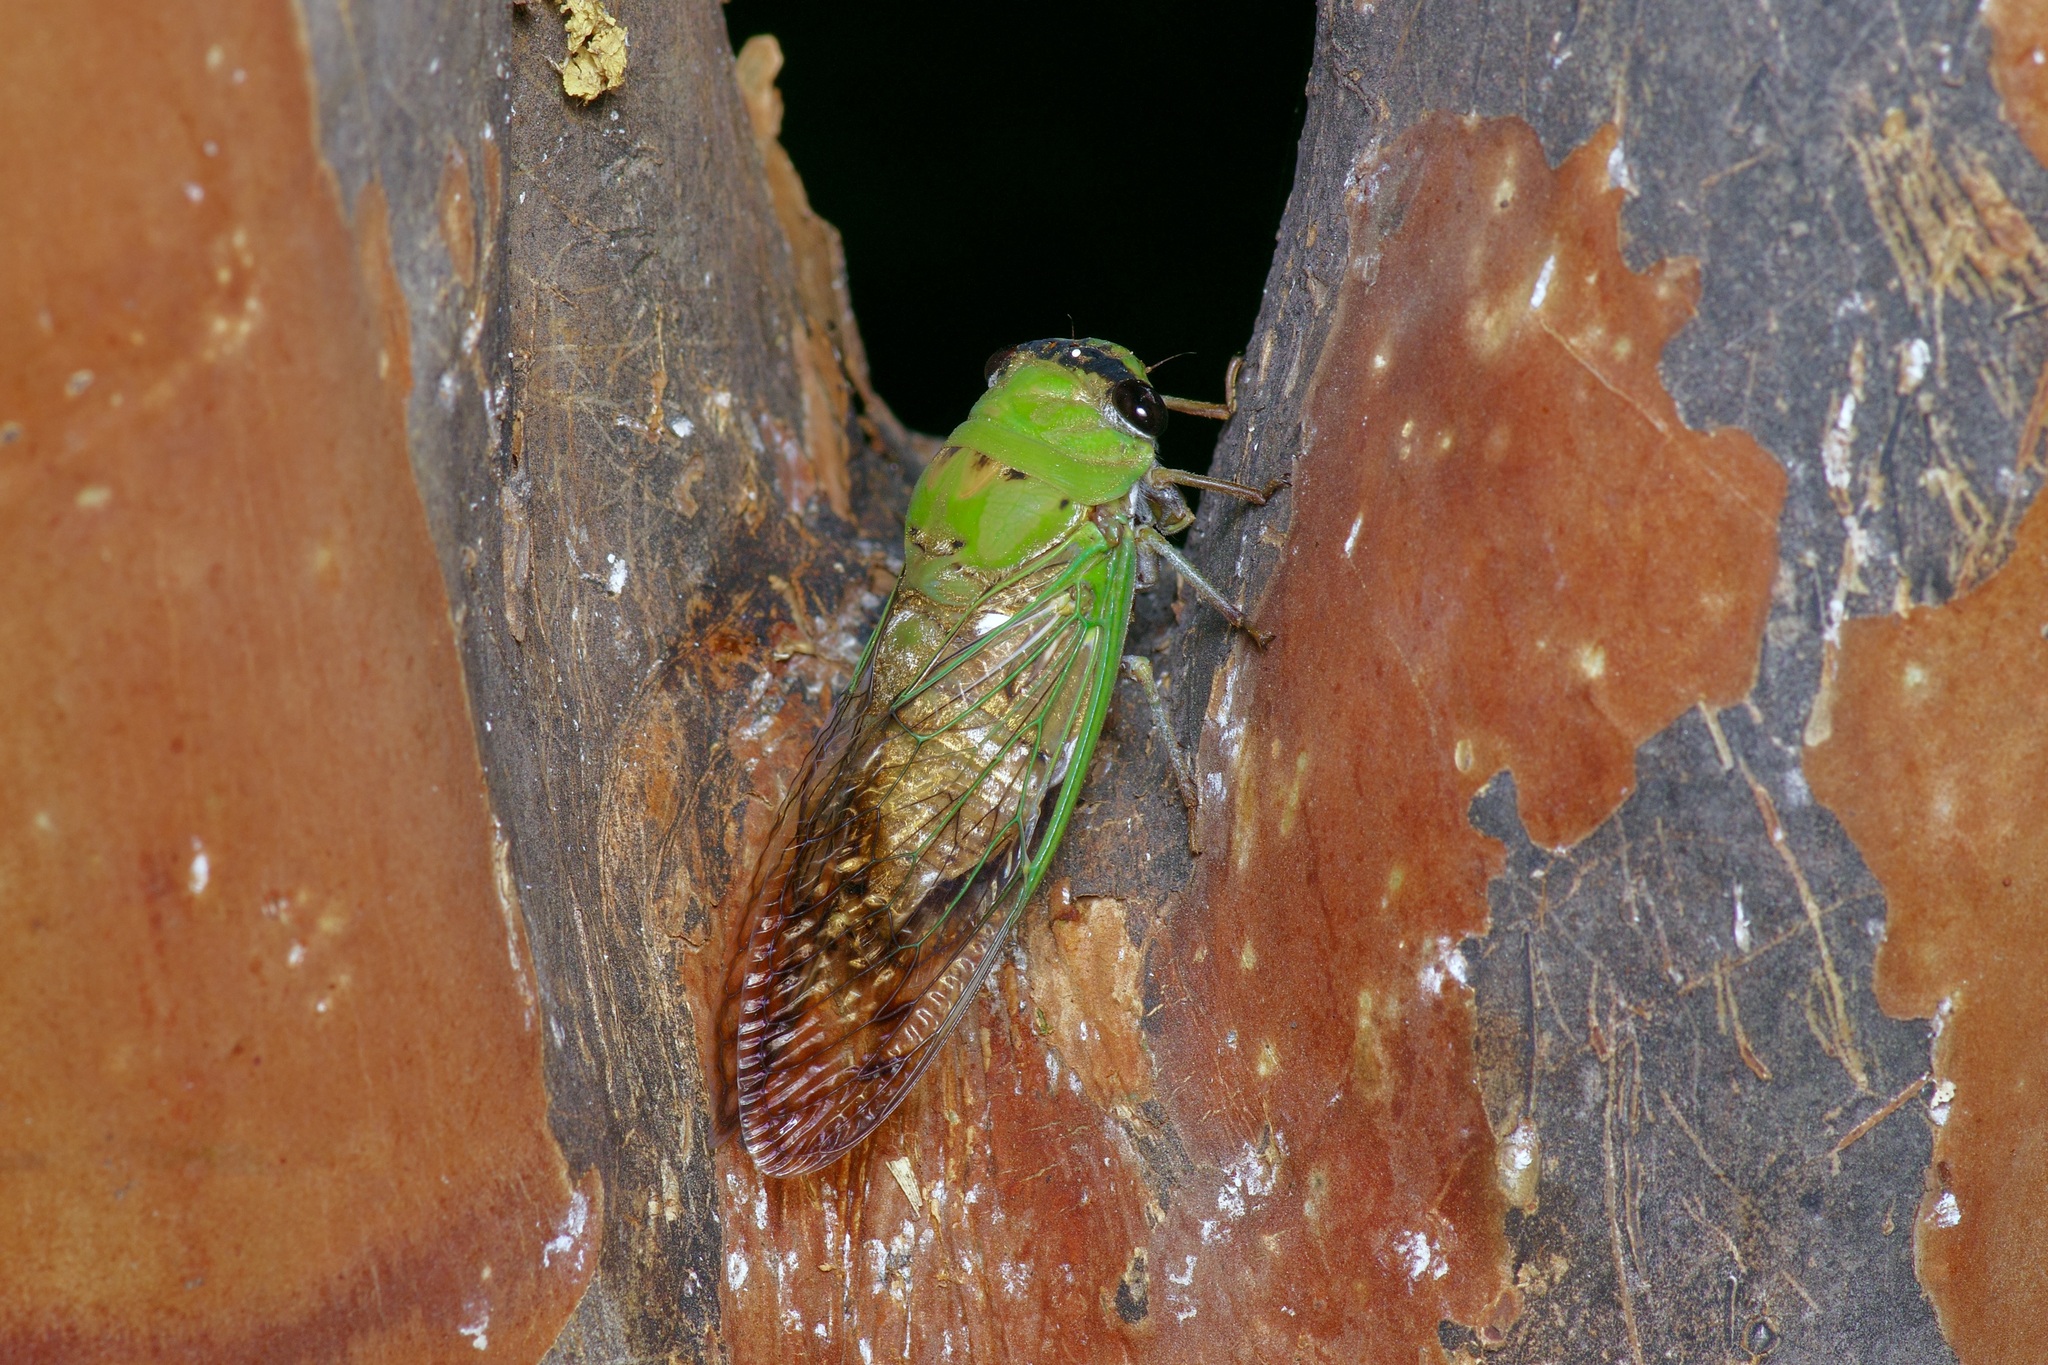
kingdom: Animalia
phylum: Arthropoda
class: Insecta
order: Hemiptera
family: Cicadidae
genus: Neotibicen
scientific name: Neotibicen superbus
